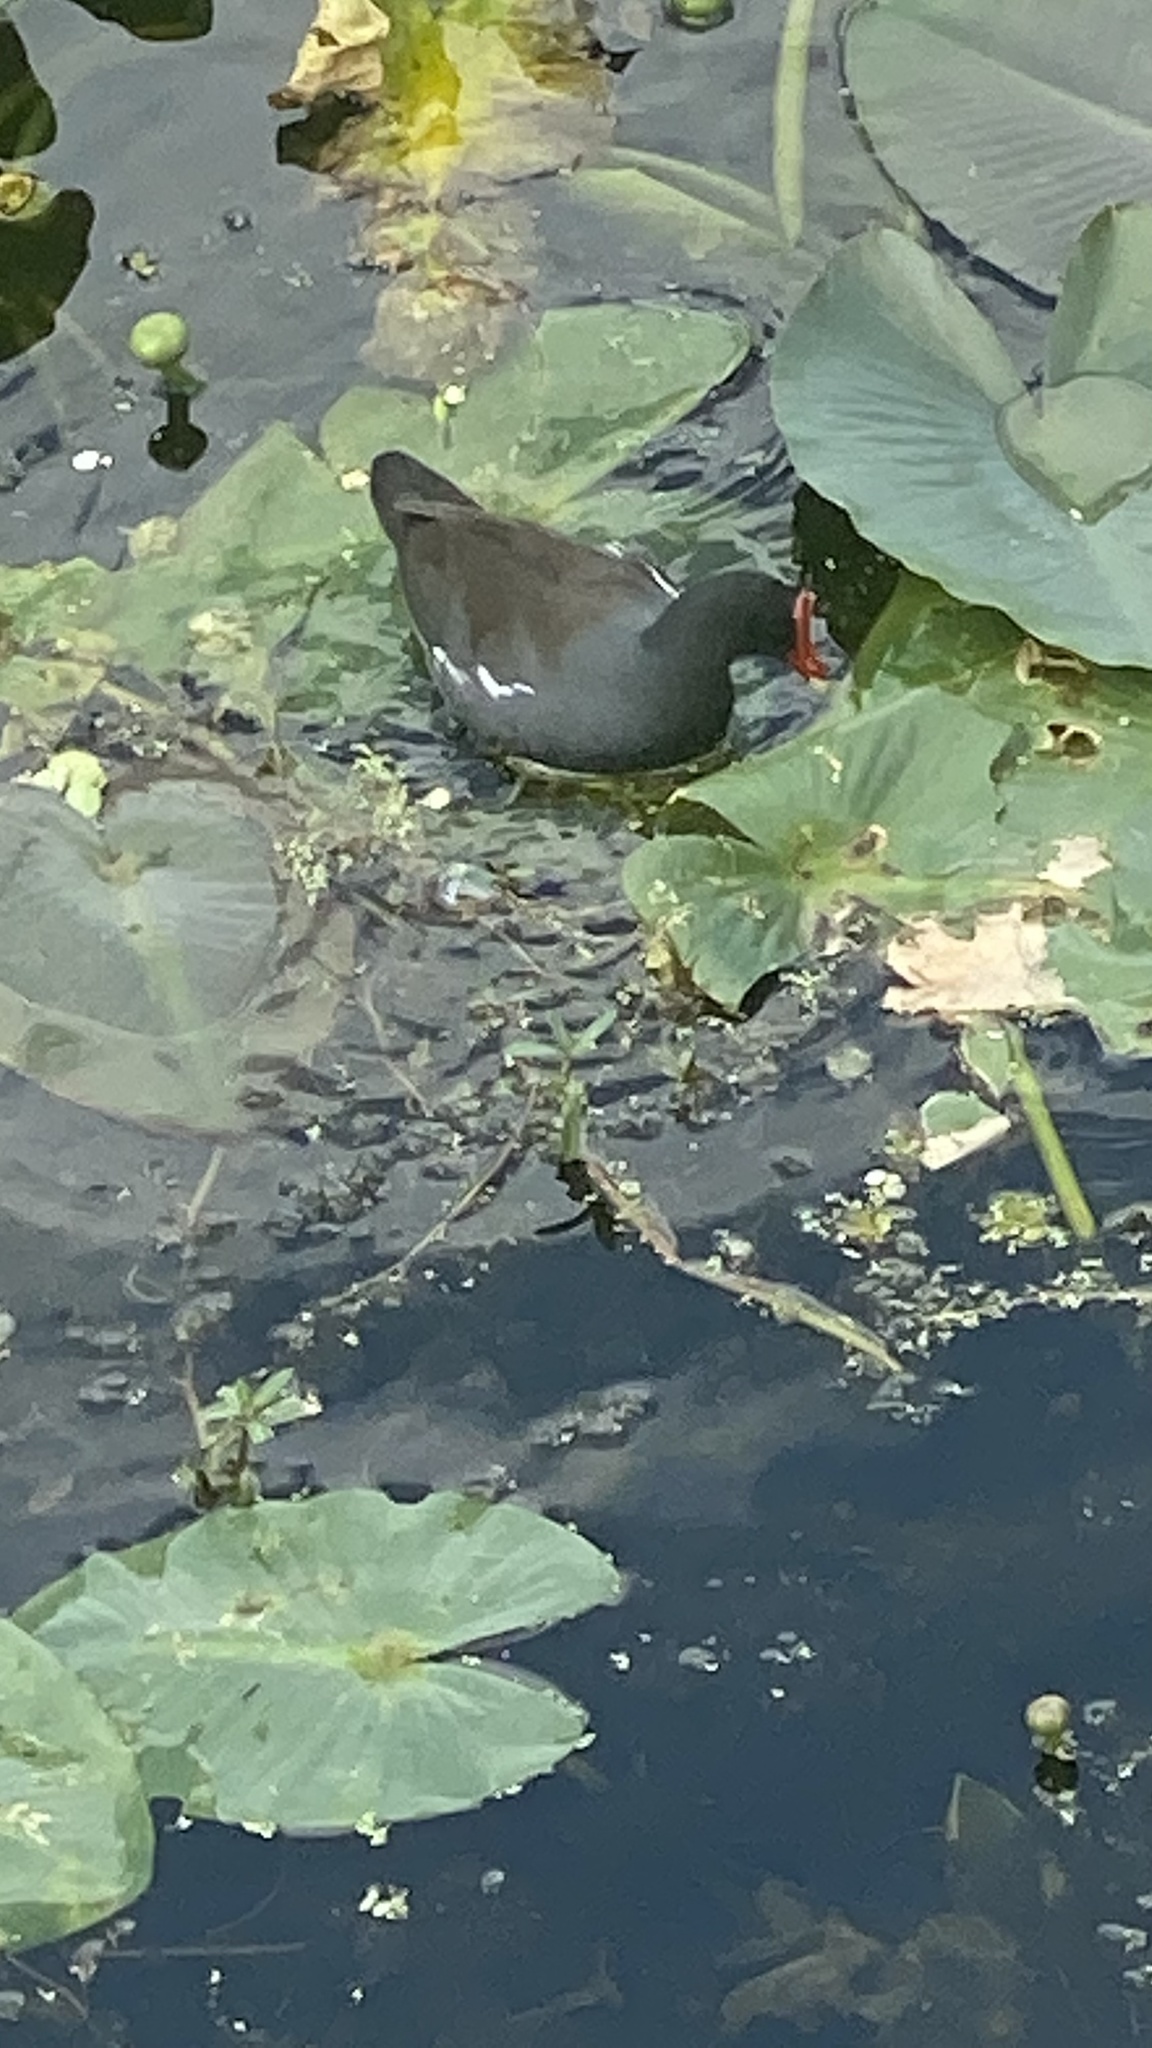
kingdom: Animalia
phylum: Chordata
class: Aves
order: Gruiformes
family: Rallidae
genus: Gallinula
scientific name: Gallinula chloropus
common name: Common moorhen
